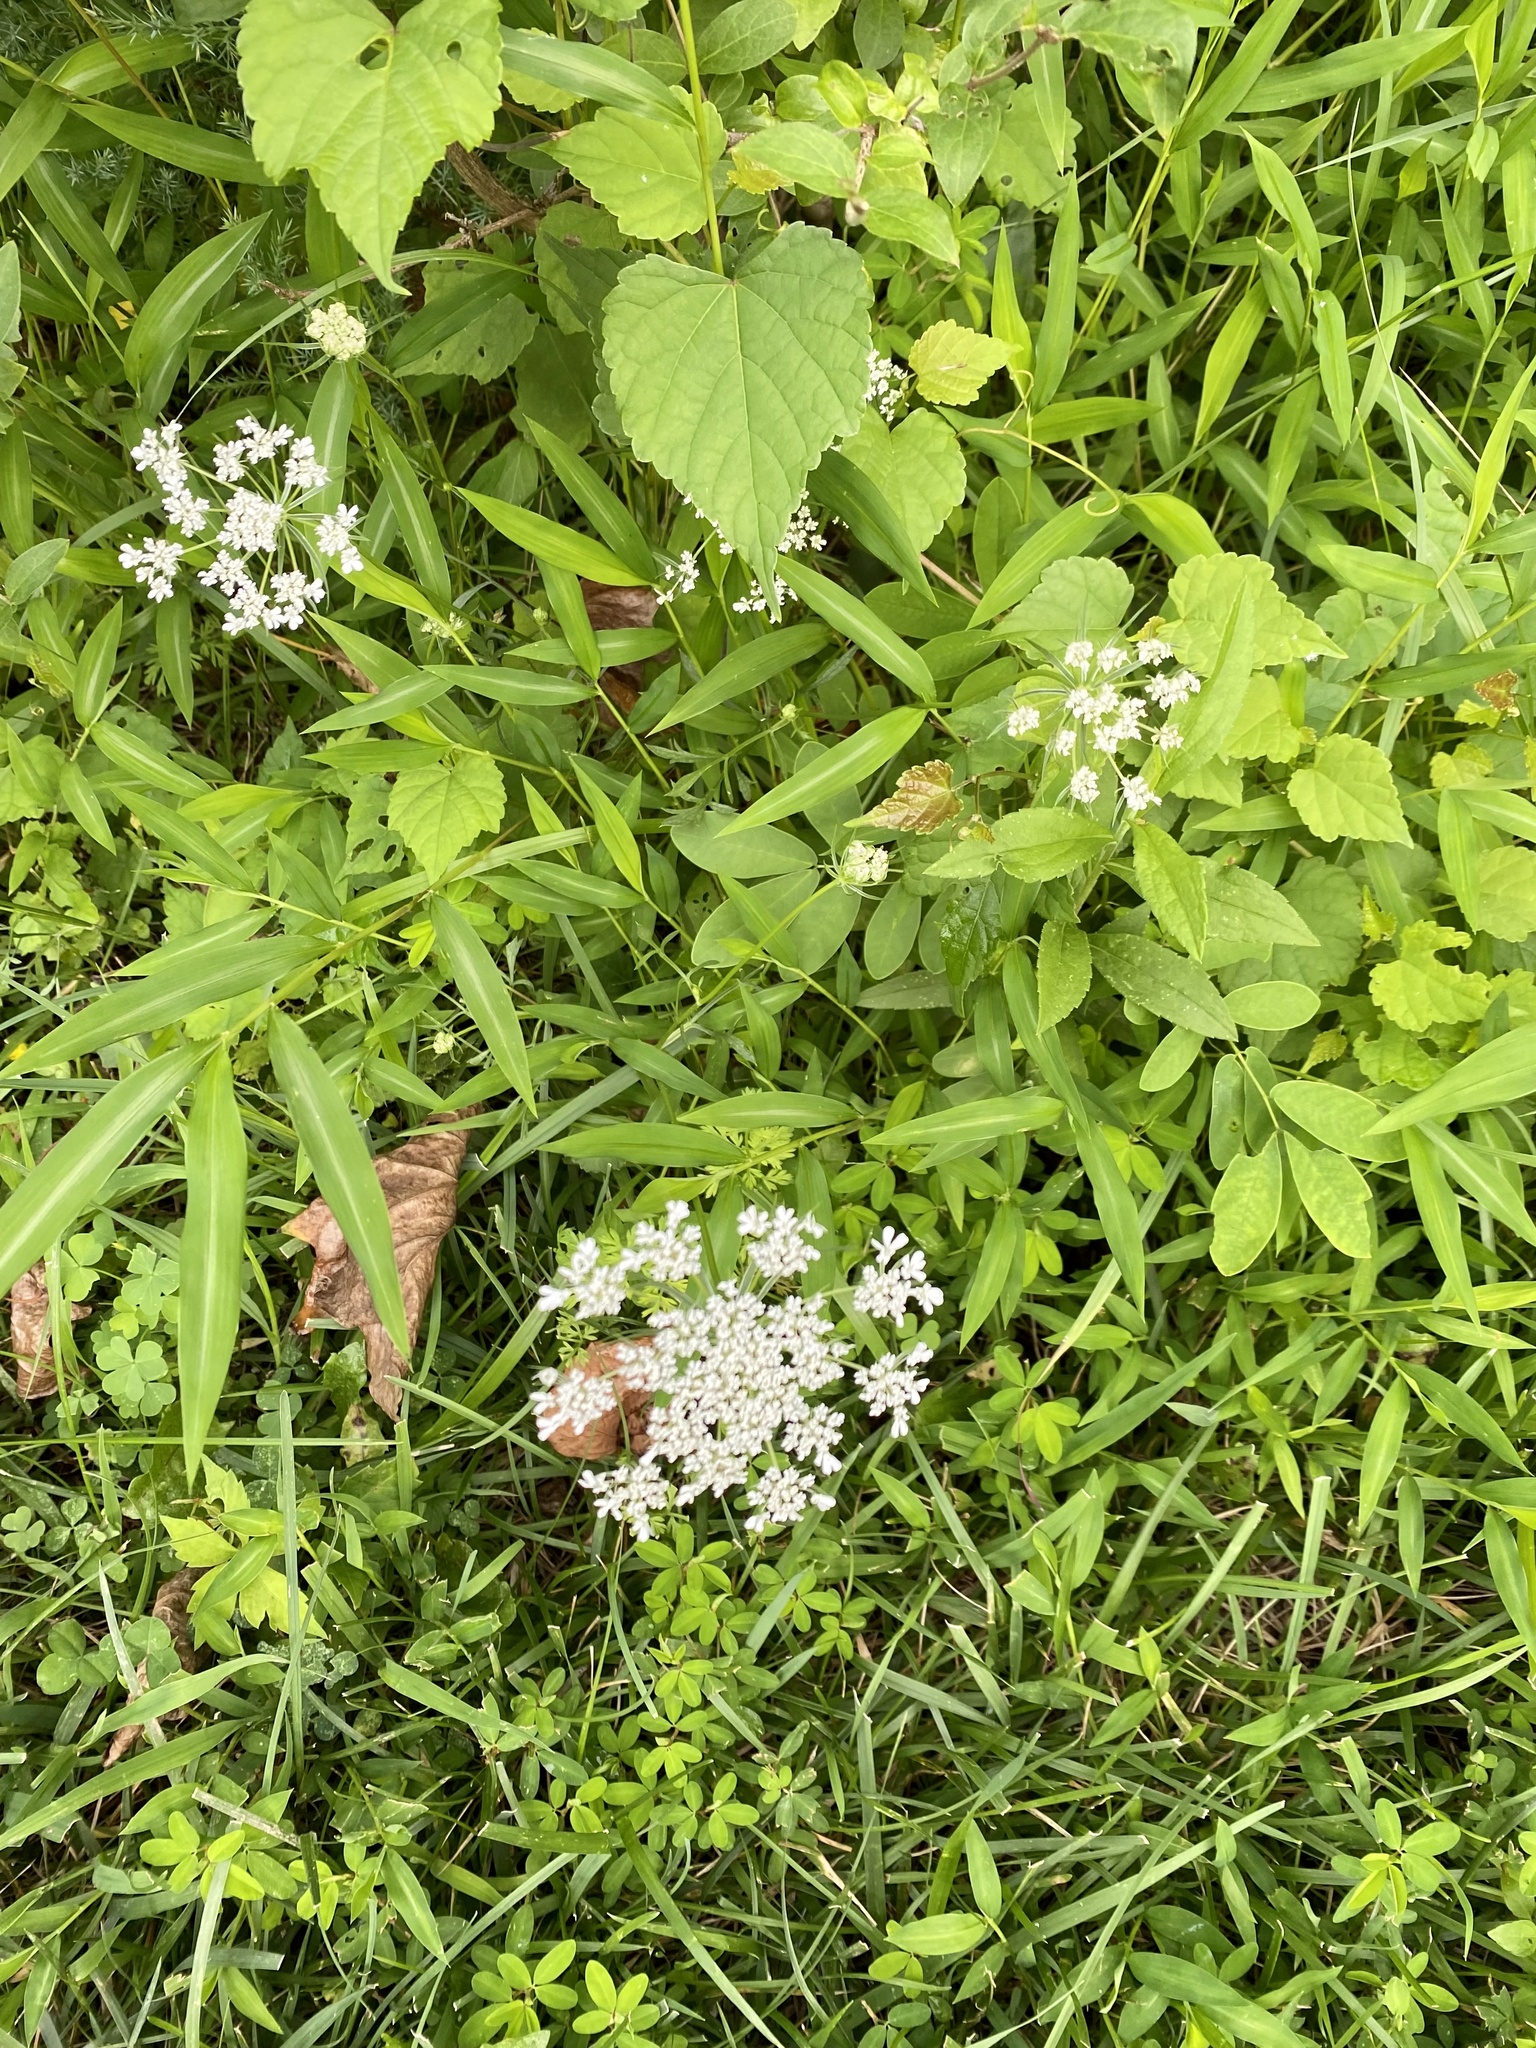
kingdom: Plantae
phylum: Tracheophyta
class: Magnoliopsida
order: Apiales
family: Apiaceae
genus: Daucus
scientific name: Daucus carota
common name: Wild carrot
